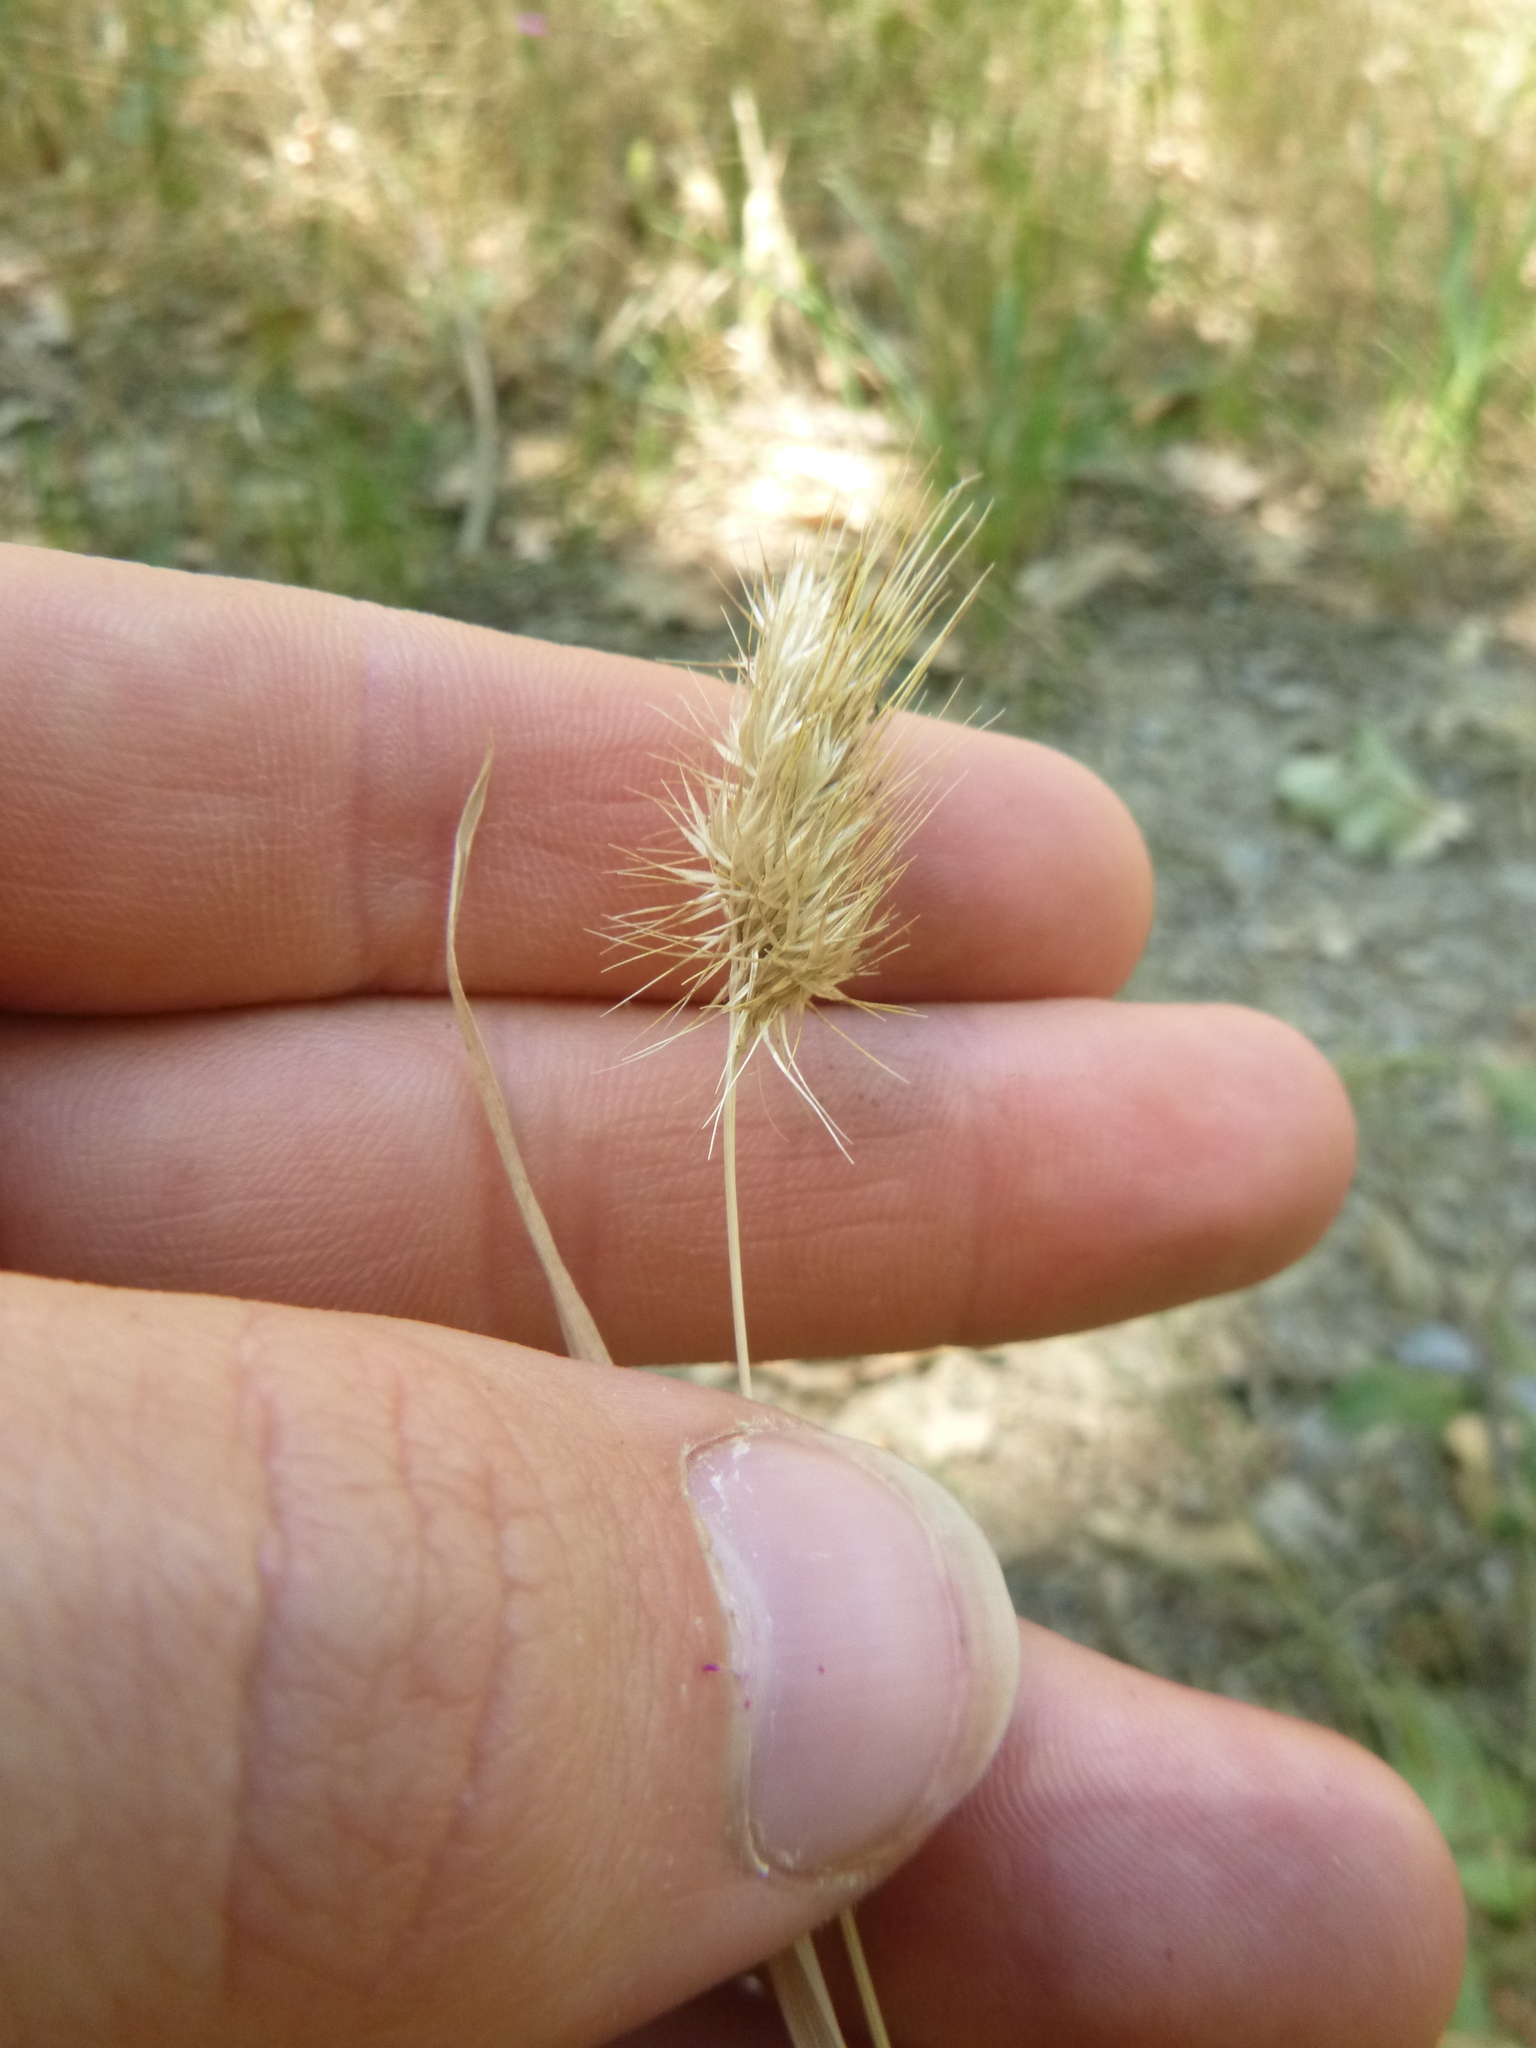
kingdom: Plantae
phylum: Tracheophyta
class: Liliopsida
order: Poales
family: Poaceae
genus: Cynosurus
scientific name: Cynosurus echinatus
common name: Rough dog's-tail
